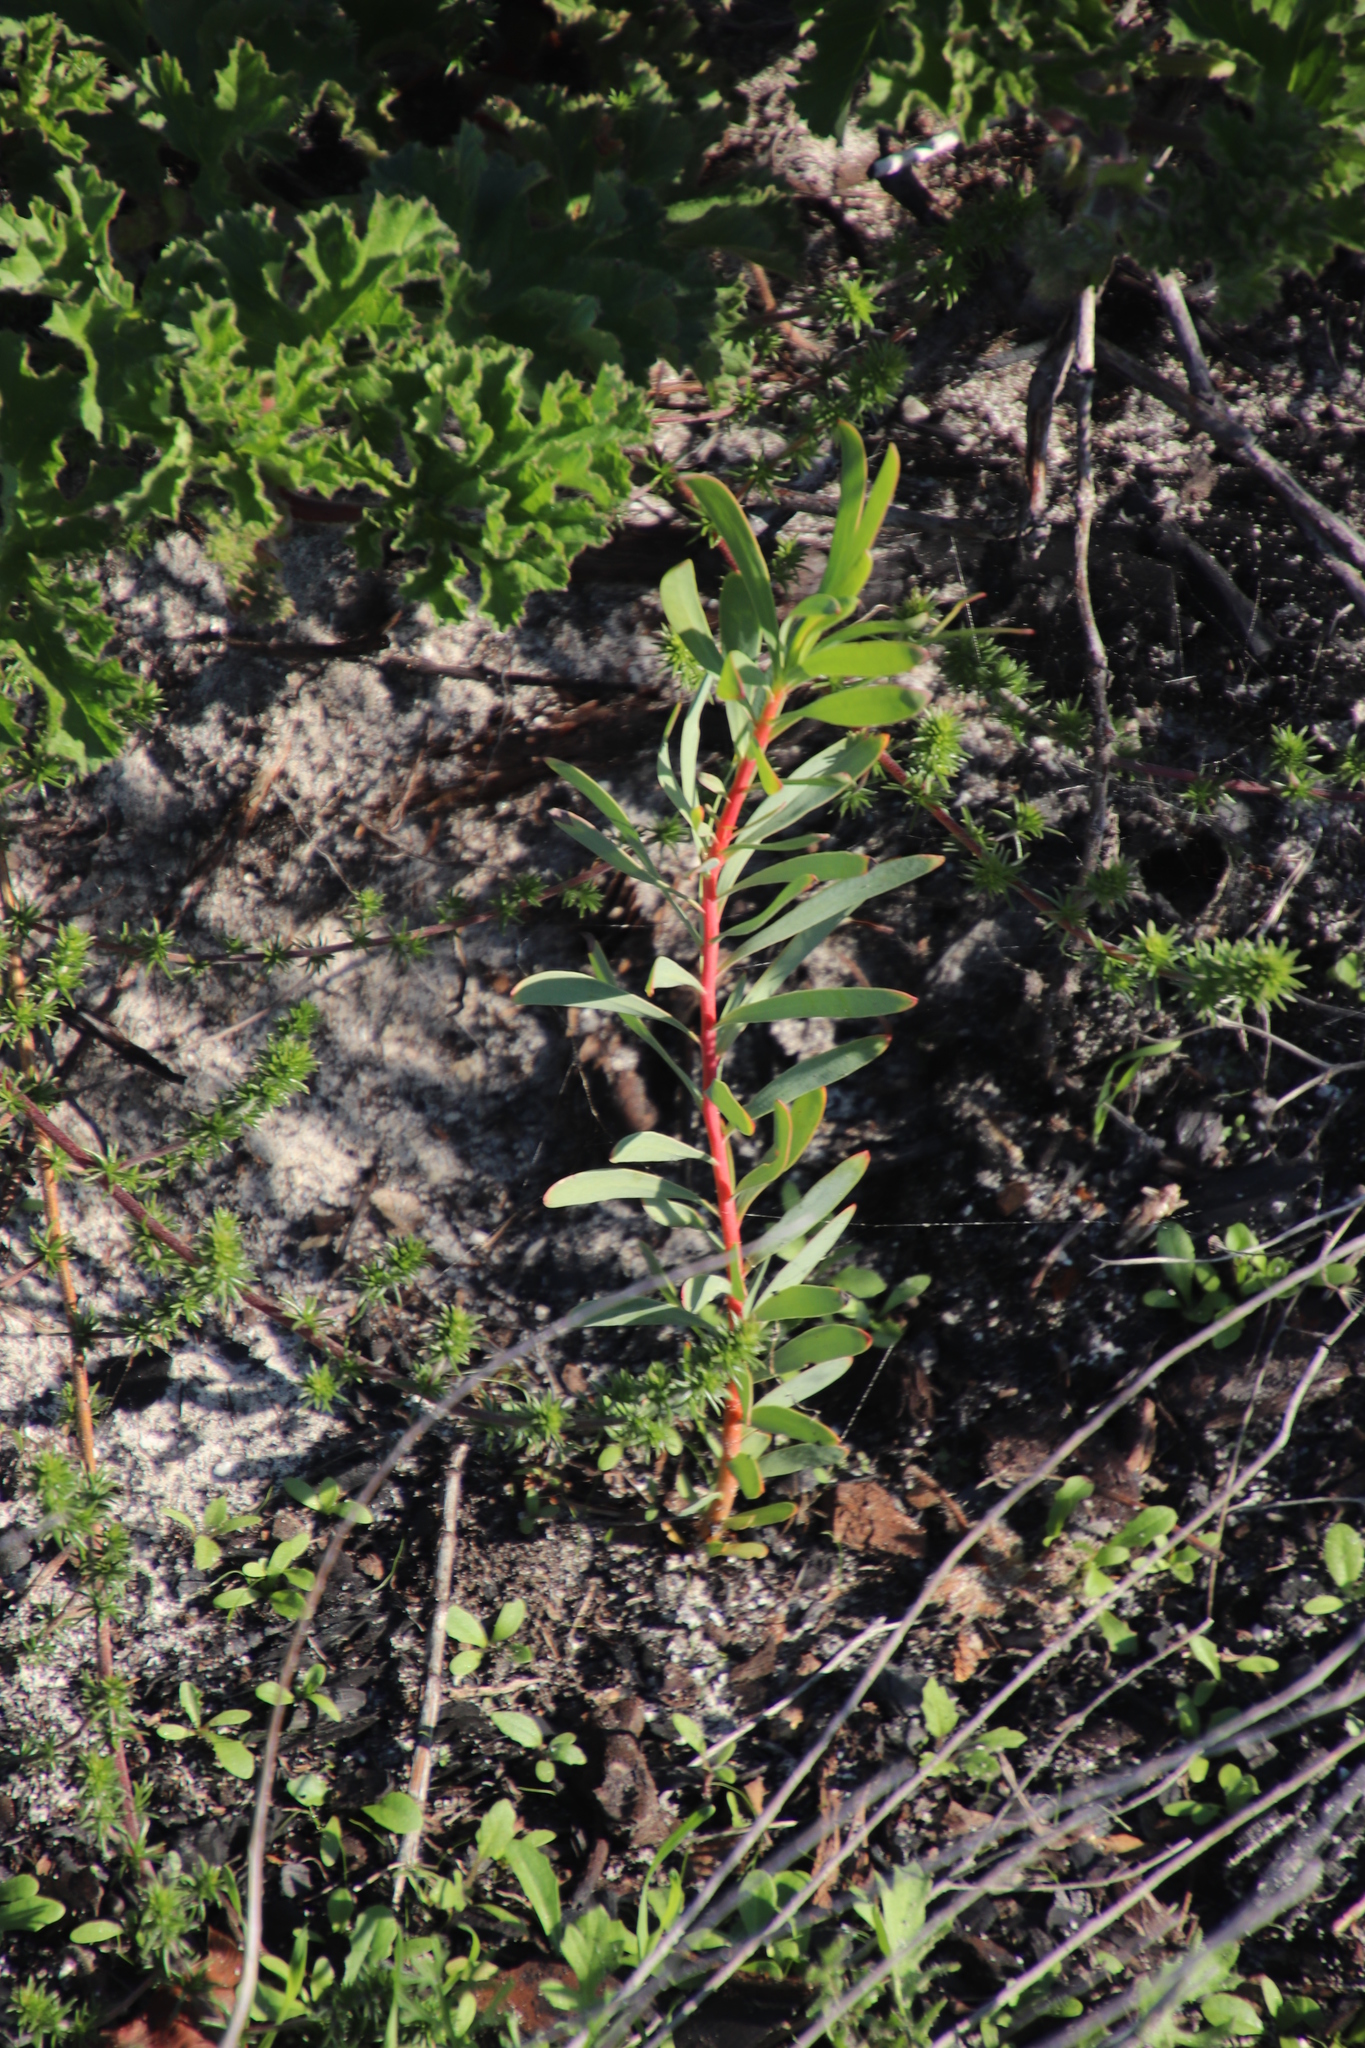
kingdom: Plantae
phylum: Tracheophyta
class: Magnoliopsida
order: Proteales
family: Proteaceae
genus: Protea
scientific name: Protea repens
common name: Sugarbush
